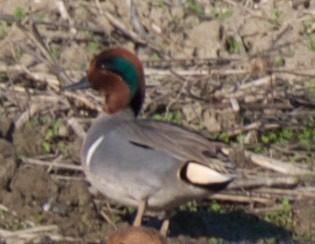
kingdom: Animalia
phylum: Chordata
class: Aves
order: Anseriformes
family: Anatidae
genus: Anas
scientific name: Anas crecca
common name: Eurasian teal
